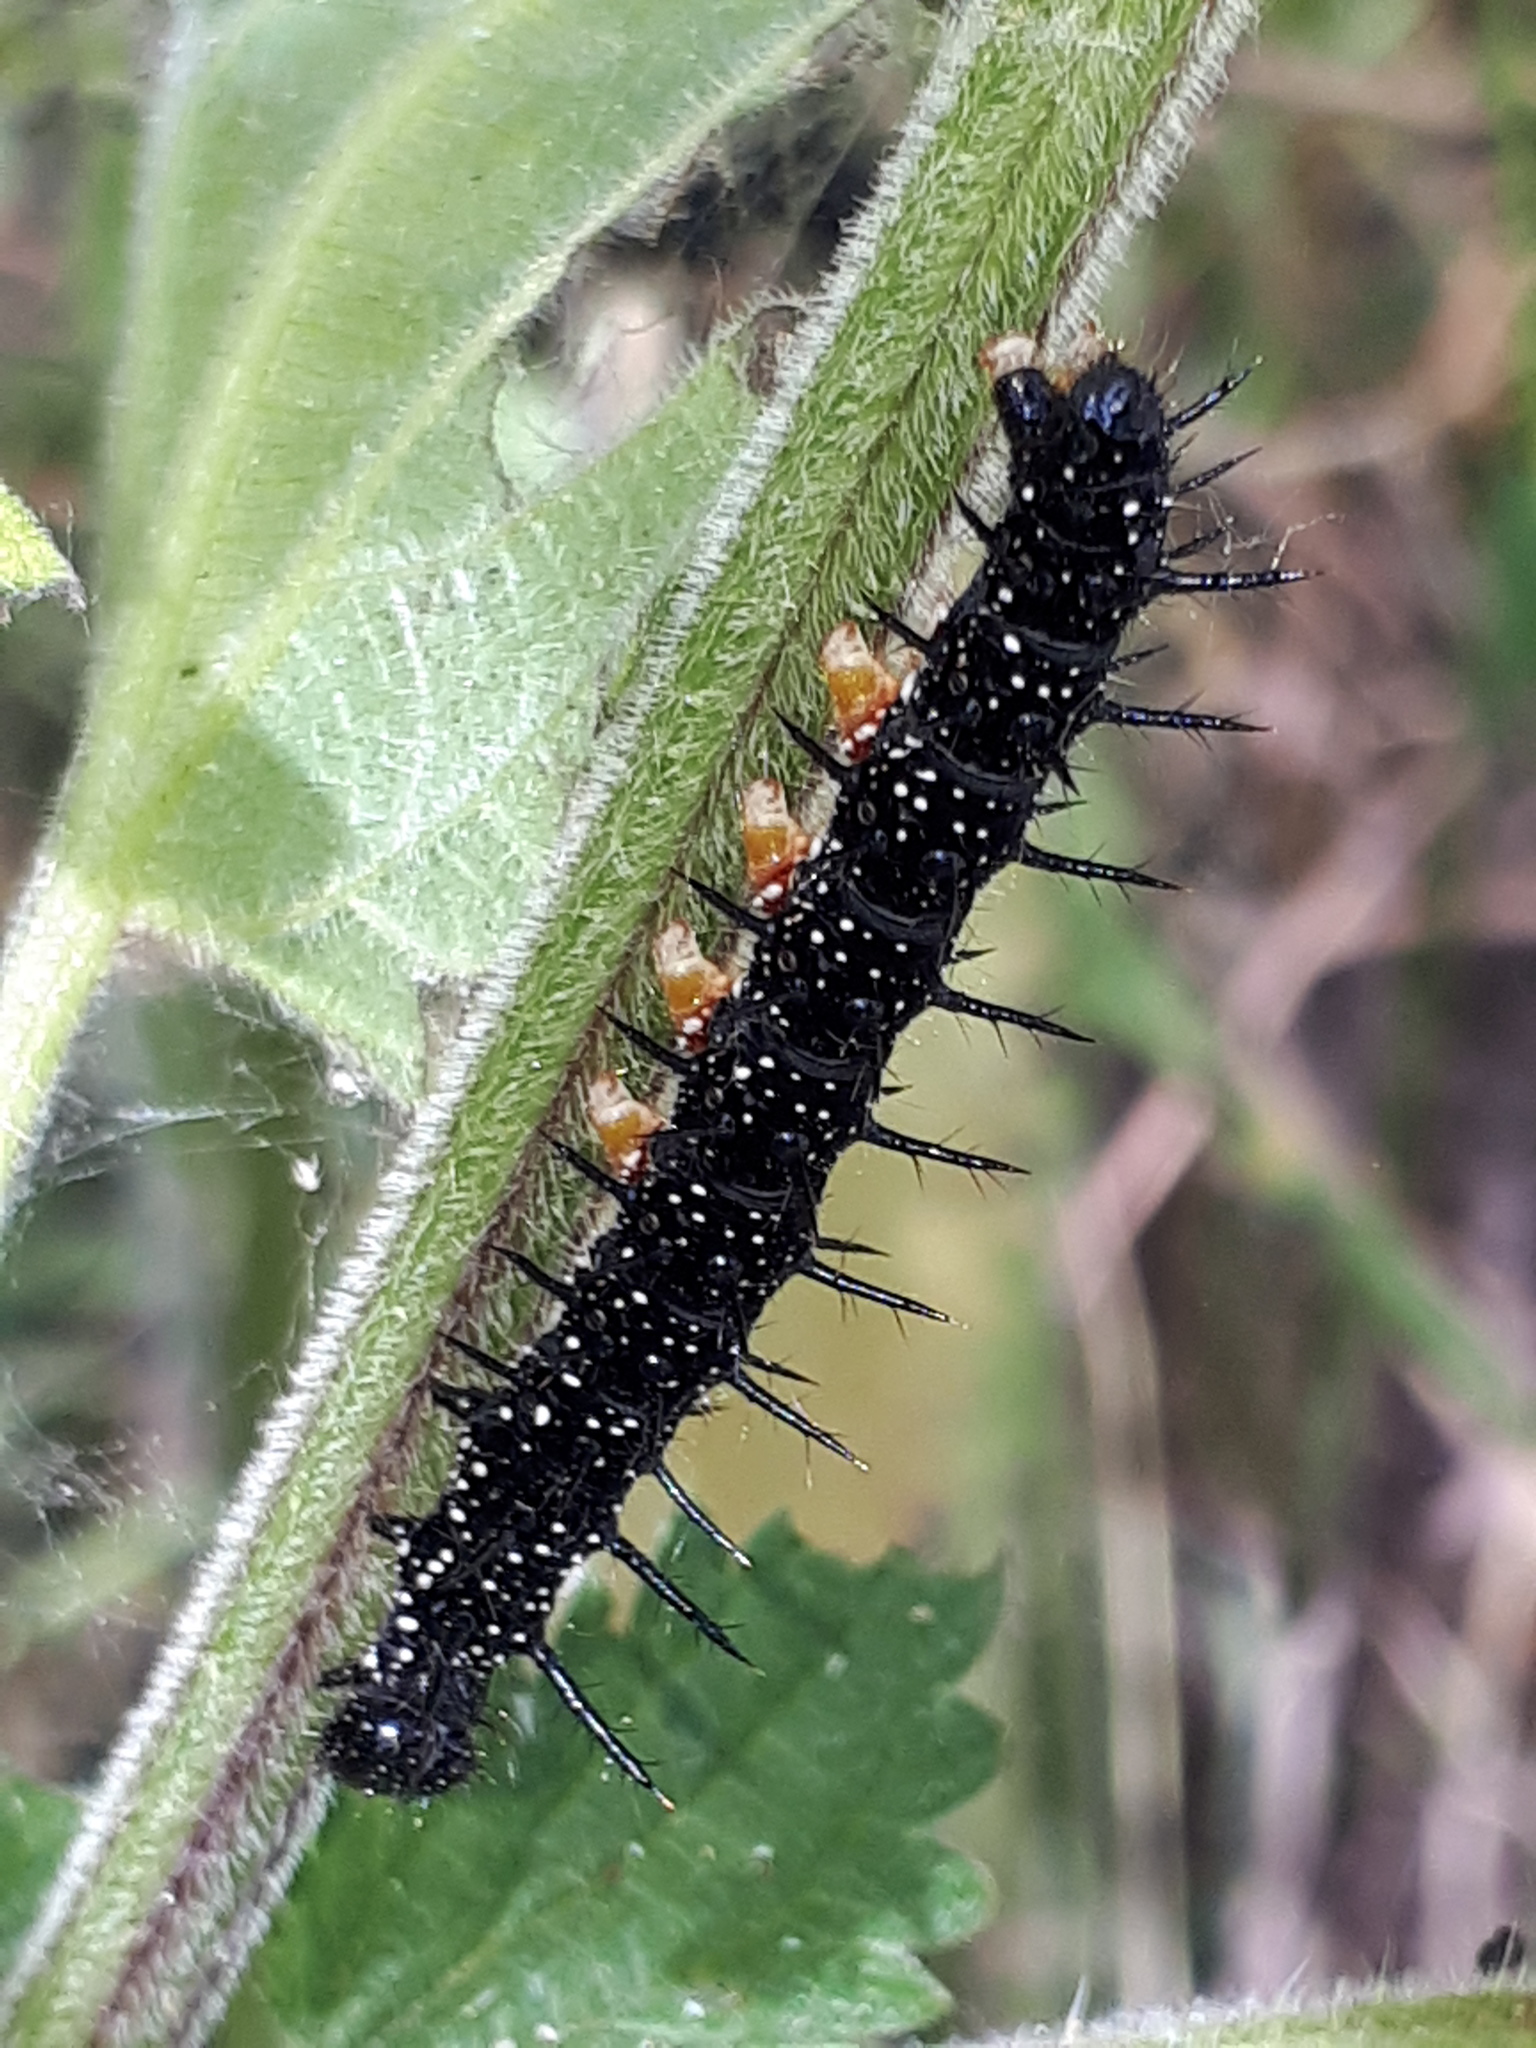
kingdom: Animalia
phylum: Arthropoda
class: Insecta
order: Lepidoptera
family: Nymphalidae
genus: Aglais
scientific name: Aglais io
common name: Peacock
